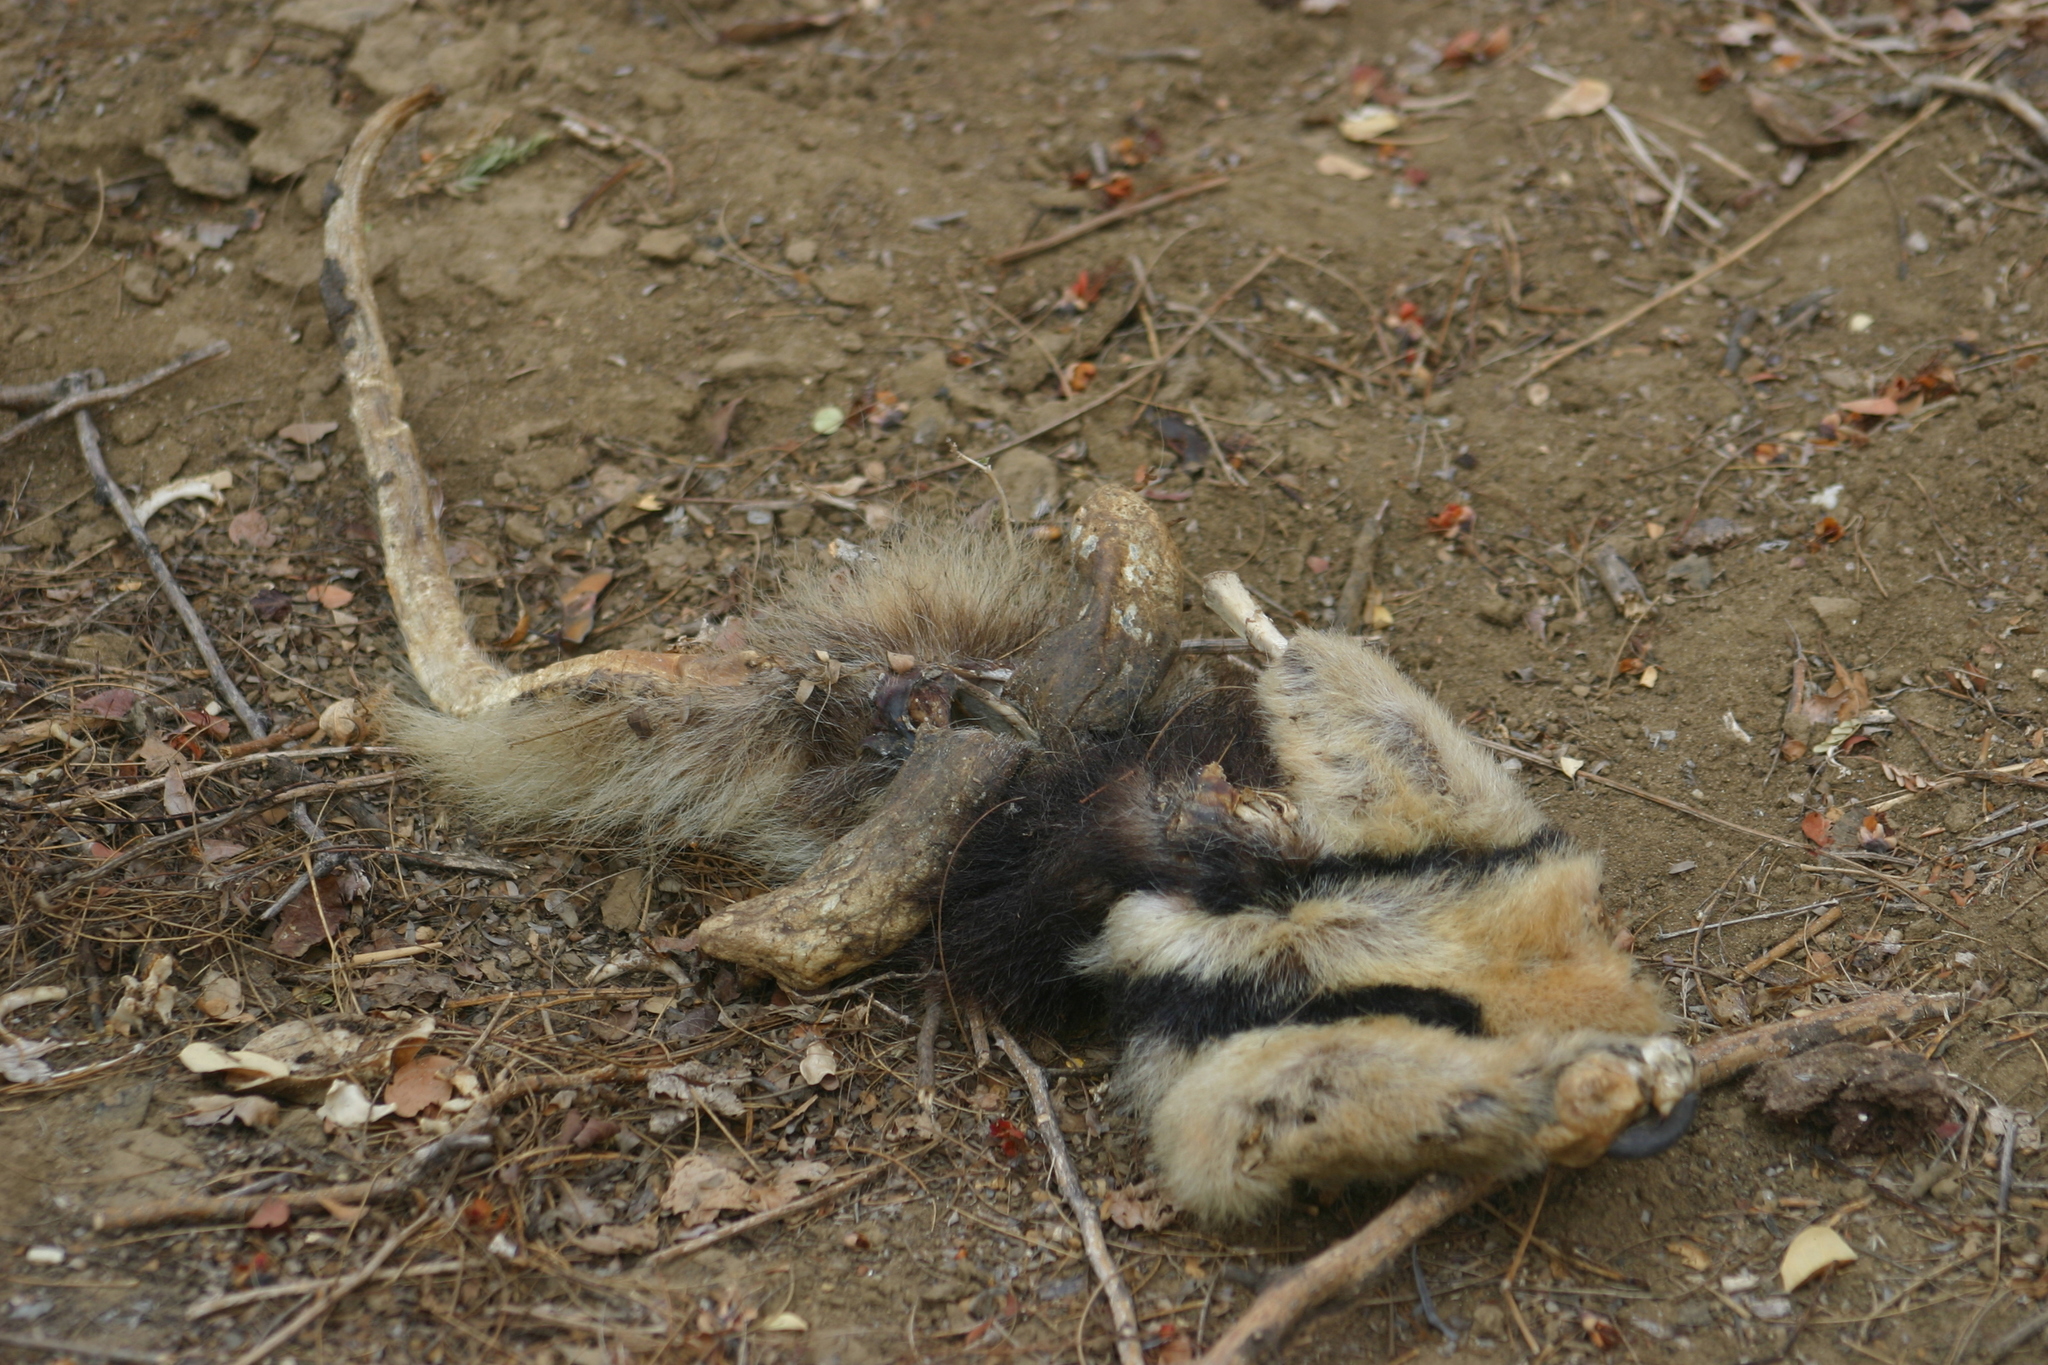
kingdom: Animalia
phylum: Chordata
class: Mammalia
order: Pilosa
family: Myrmecophagidae
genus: Tamandua
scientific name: Tamandua mexicana
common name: Northern tamandua
